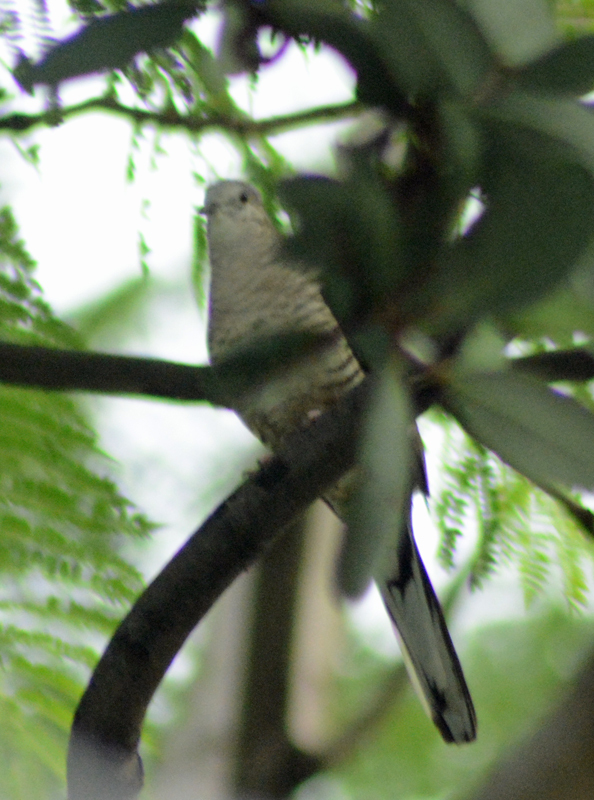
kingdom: Animalia
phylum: Chordata
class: Aves
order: Columbiformes
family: Columbidae
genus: Columbina
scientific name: Columbina inca
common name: Inca dove
